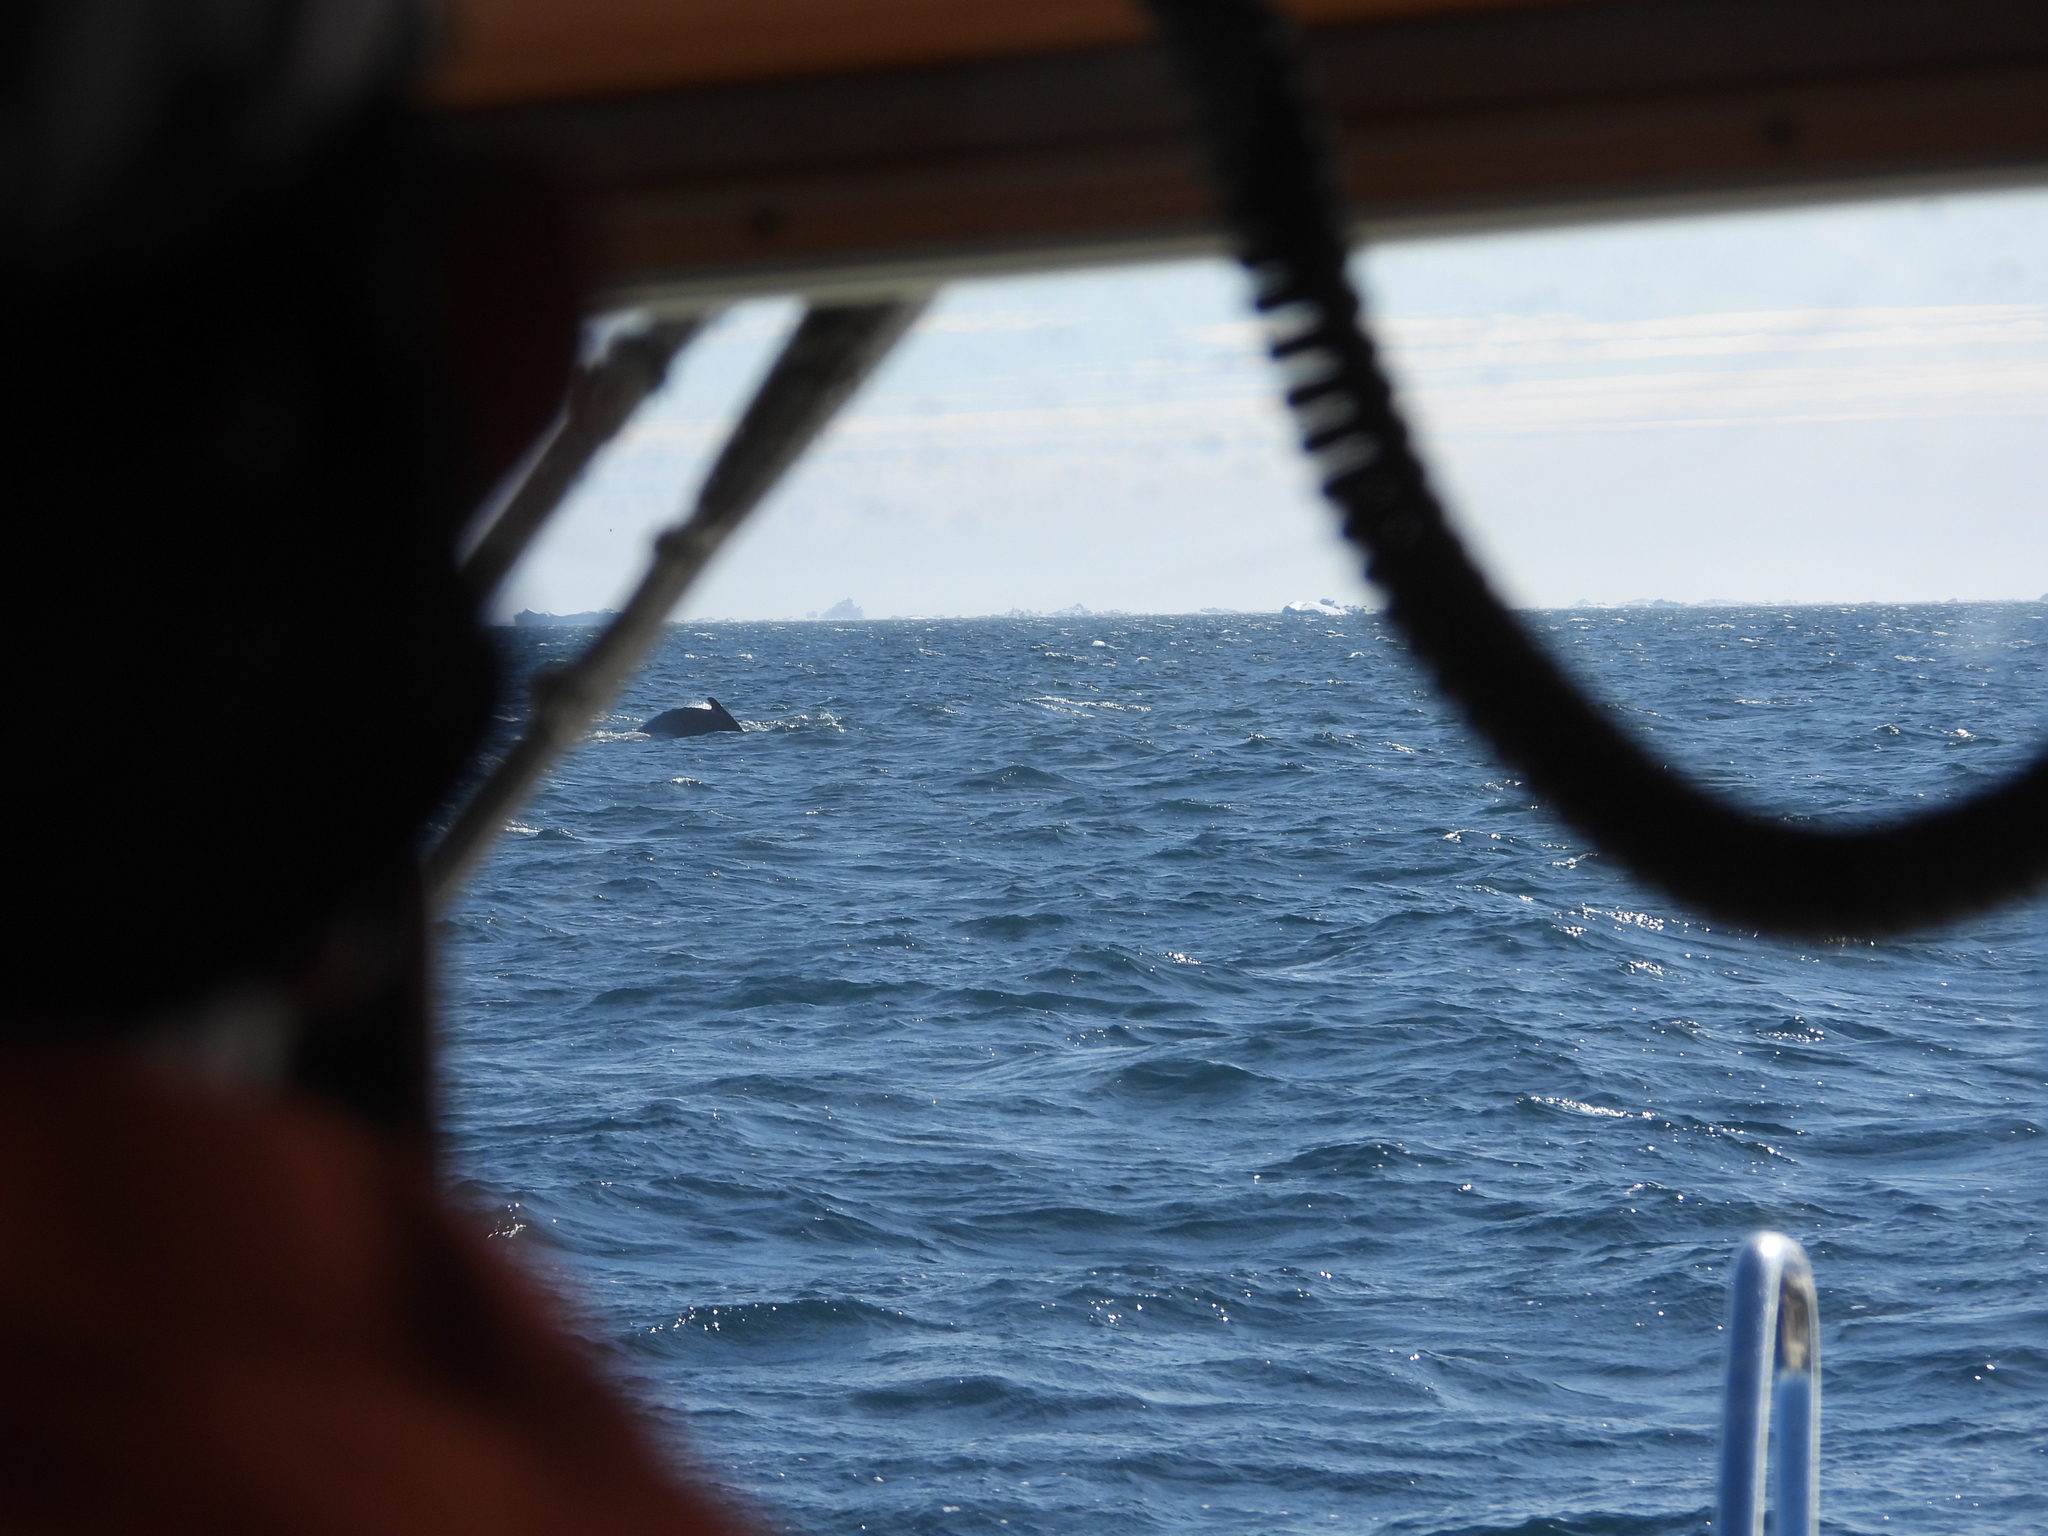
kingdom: Animalia
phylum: Chordata
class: Mammalia
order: Cetacea
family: Balaenopteridae
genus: Megaptera
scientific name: Megaptera novaeangliae
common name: Humpback whale
